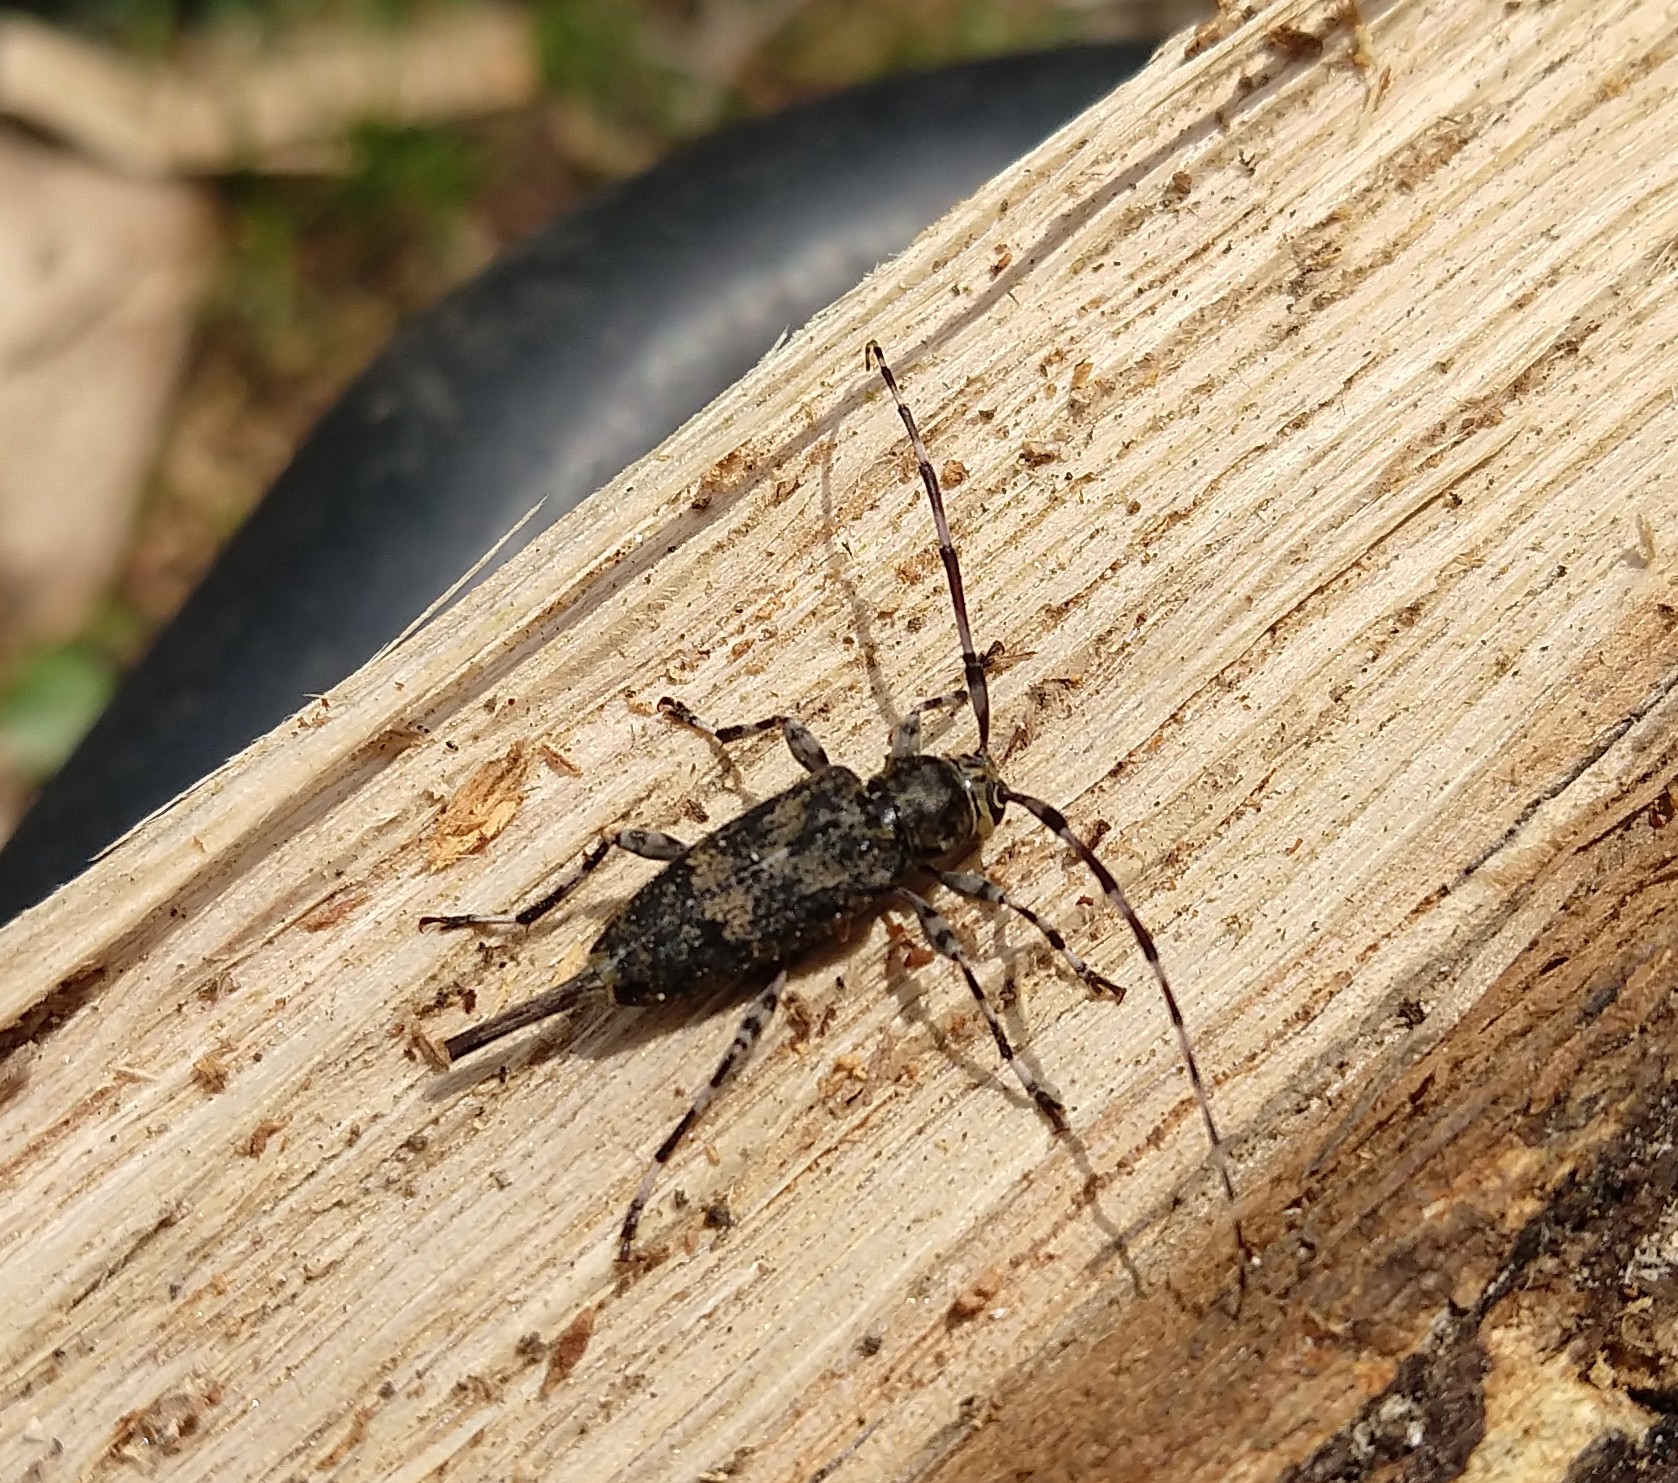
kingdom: Animalia
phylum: Arthropoda
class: Insecta
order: Coleoptera
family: Cerambycidae
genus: Graphisurus
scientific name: Graphisurus fasciatus
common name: Banded graphisurus
